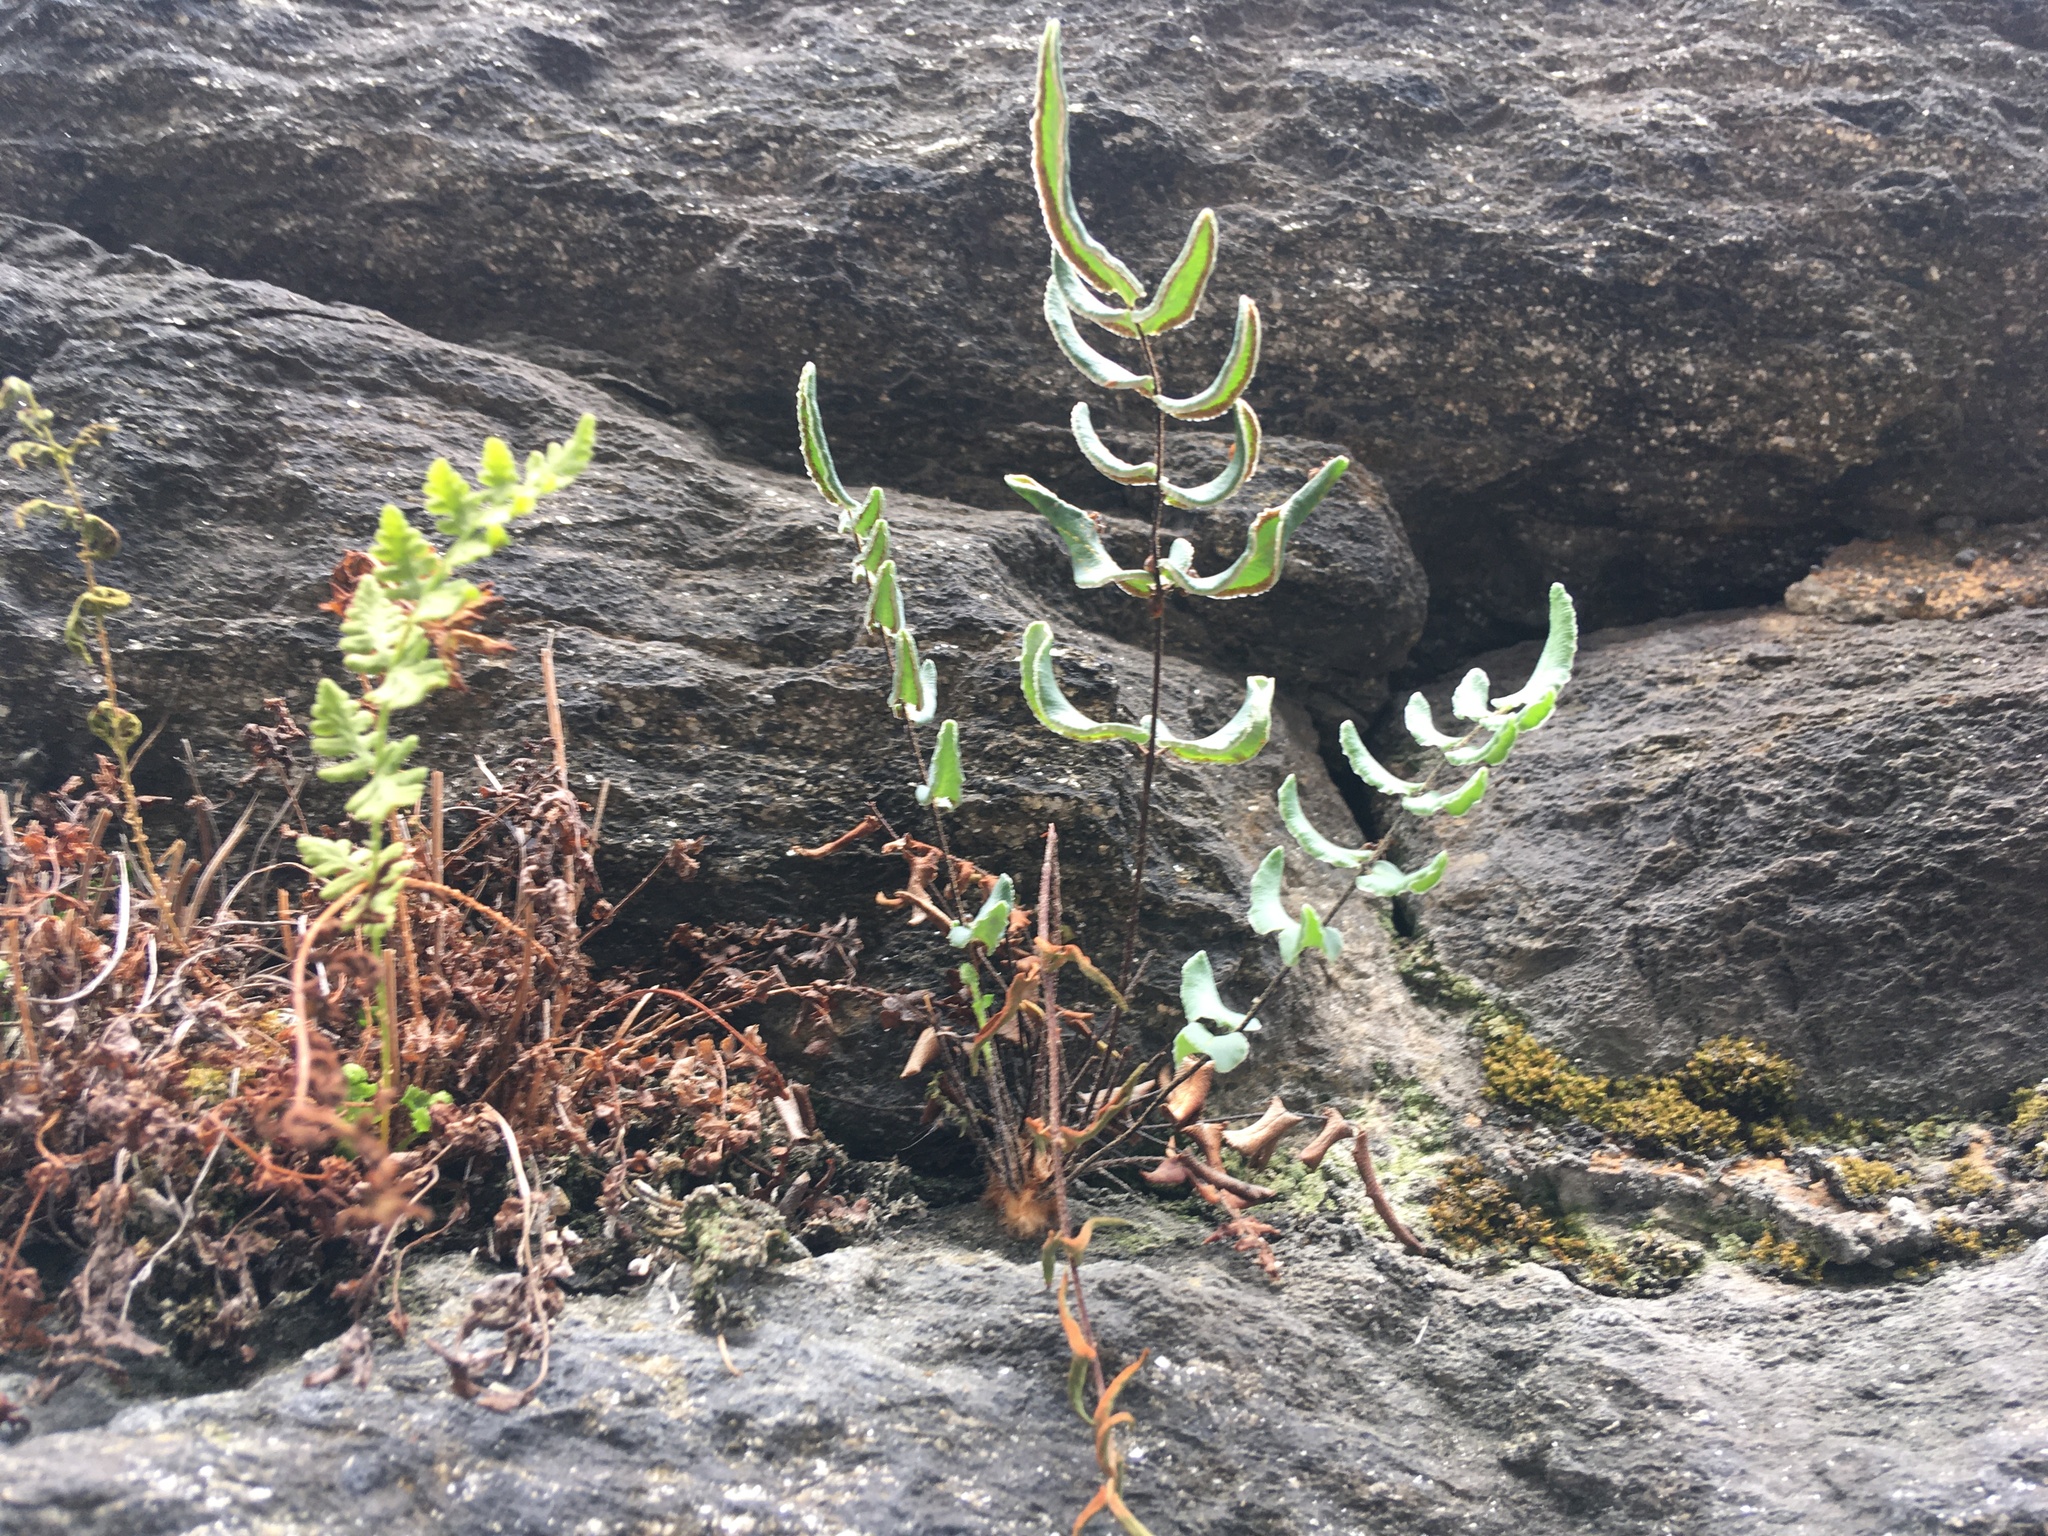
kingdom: Plantae
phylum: Tracheophyta
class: Polypodiopsida
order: Polypodiales
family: Pteridaceae
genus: Pellaea
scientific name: Pellaea atropurpurea
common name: Hairy cliffbrake
